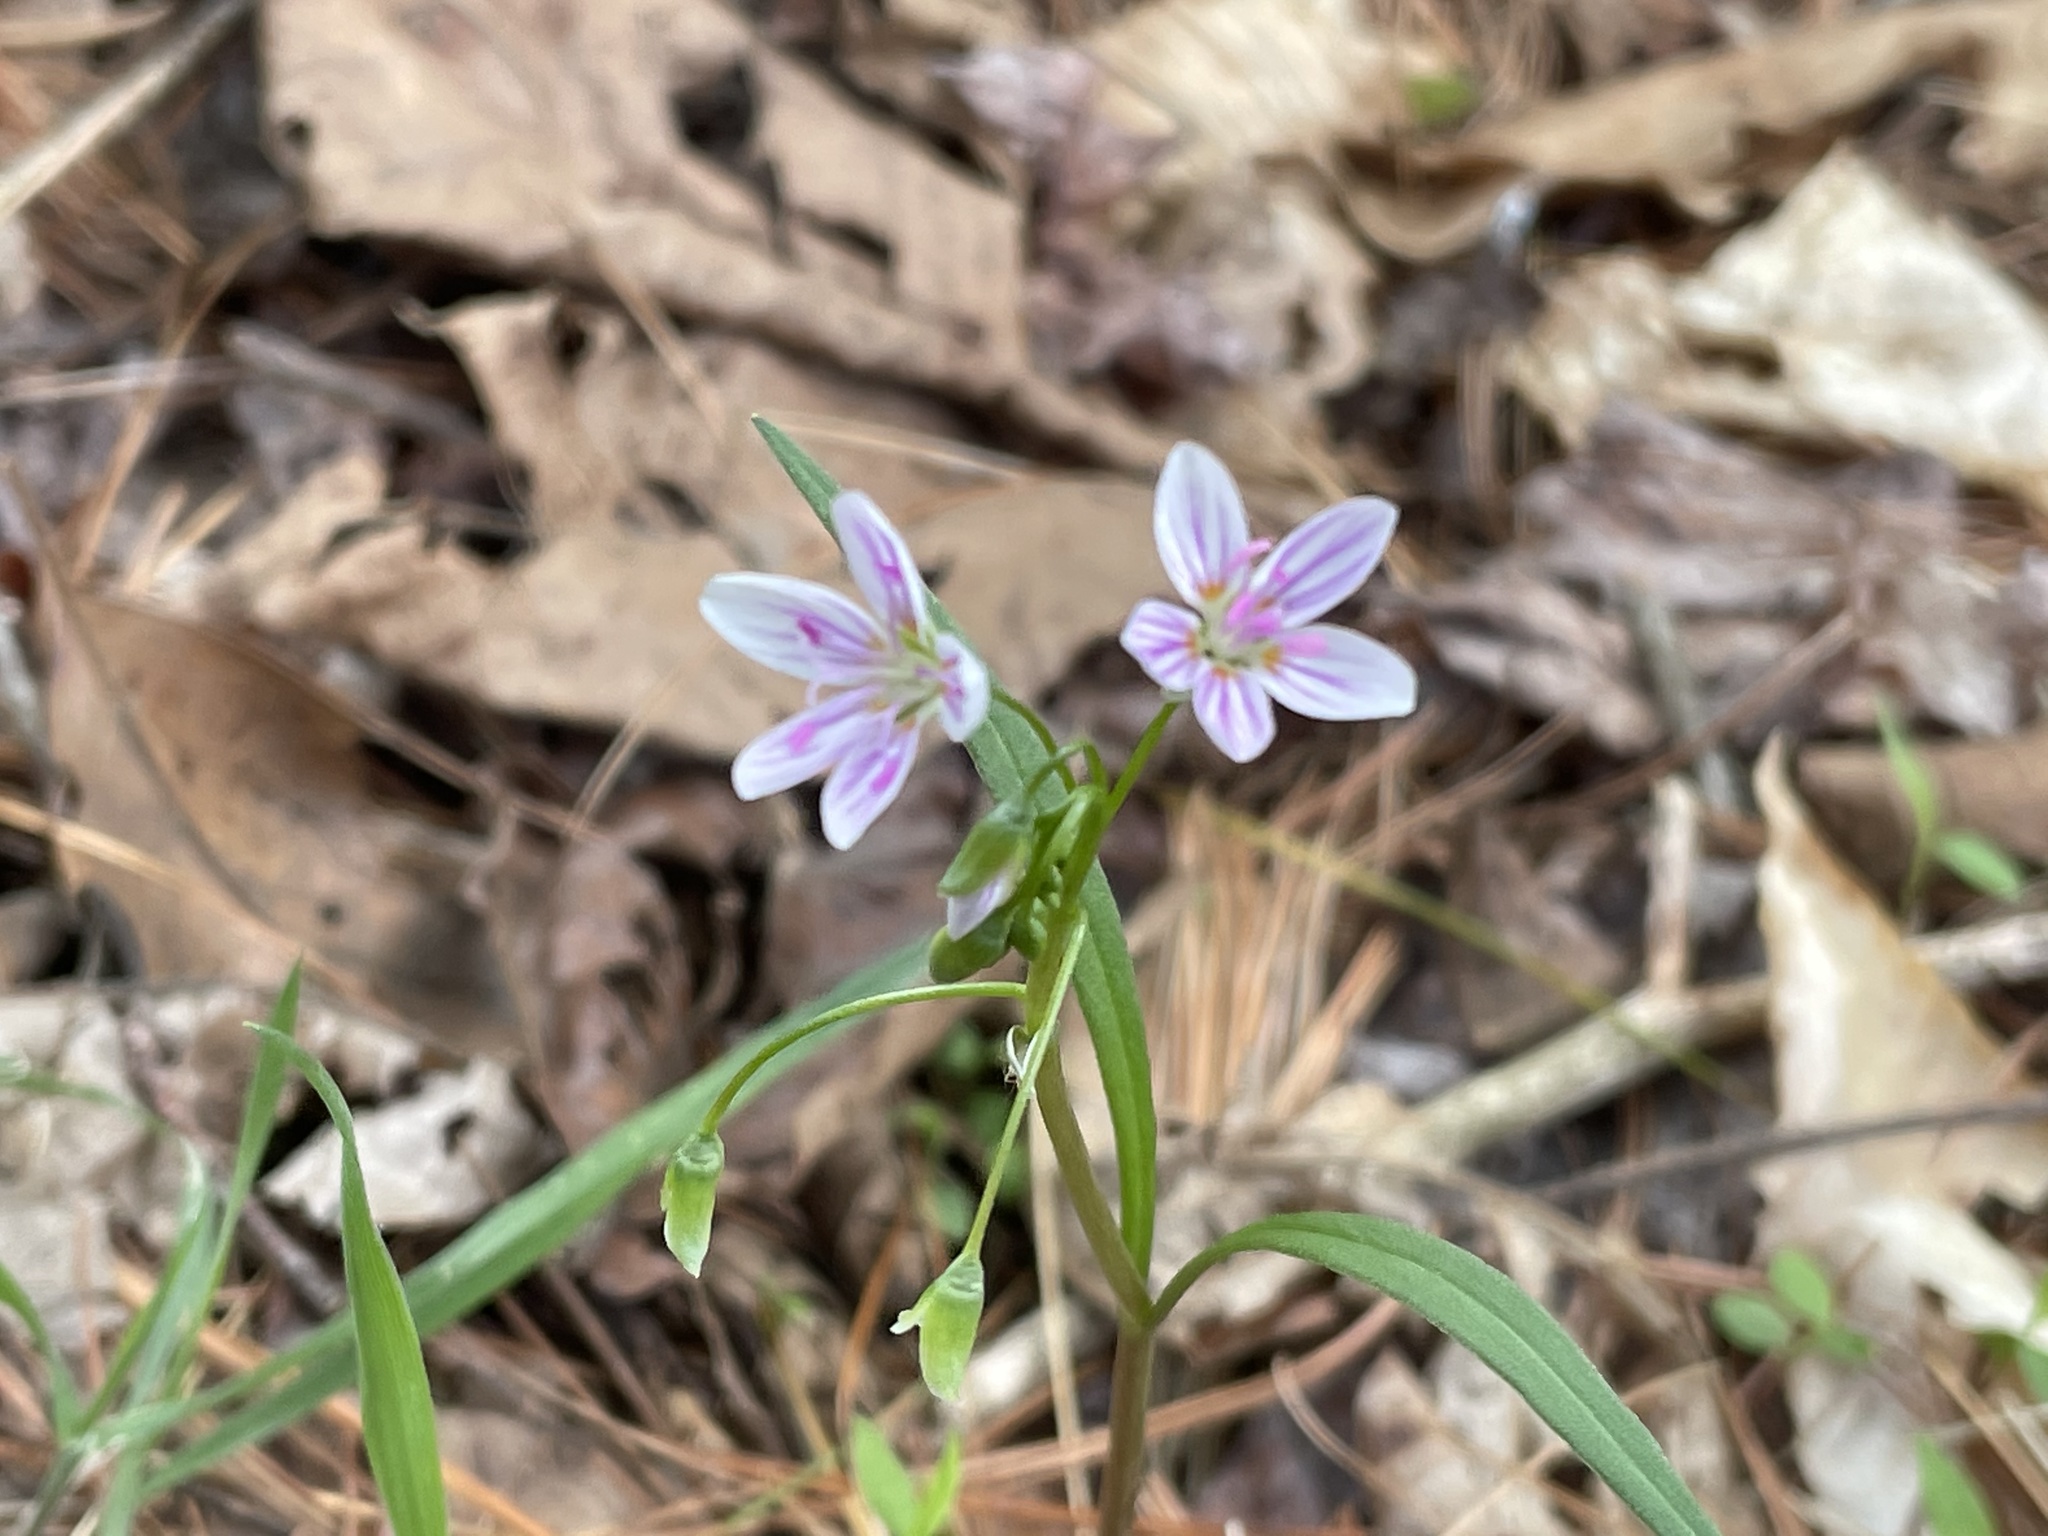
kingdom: Plantae
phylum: Tracheophyta
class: Magnoliopsida
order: Caryophyllales
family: Montiaceae
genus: Claytonia
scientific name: Claytonia virginica
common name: Virginia springbeauty
